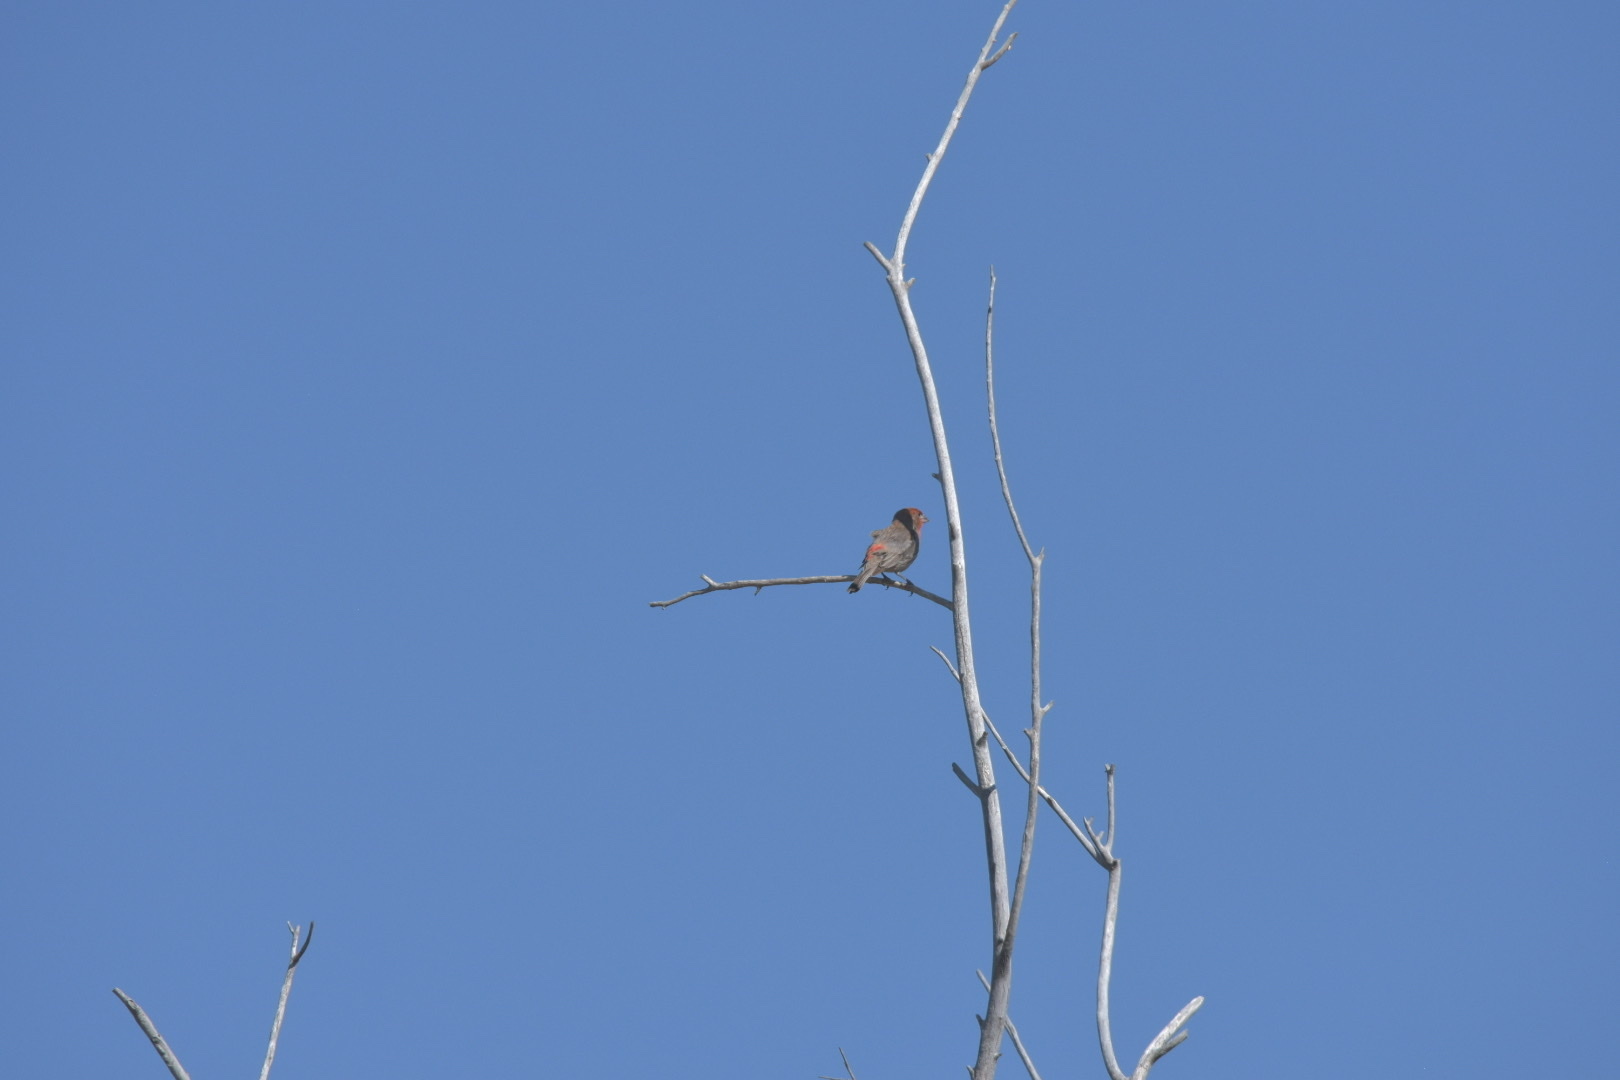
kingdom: Animalia
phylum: Chordata
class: Aves
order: Passeriformes
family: Fringillidae
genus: Haemorhous
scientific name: Haemorhous mexicanus
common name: House finch
